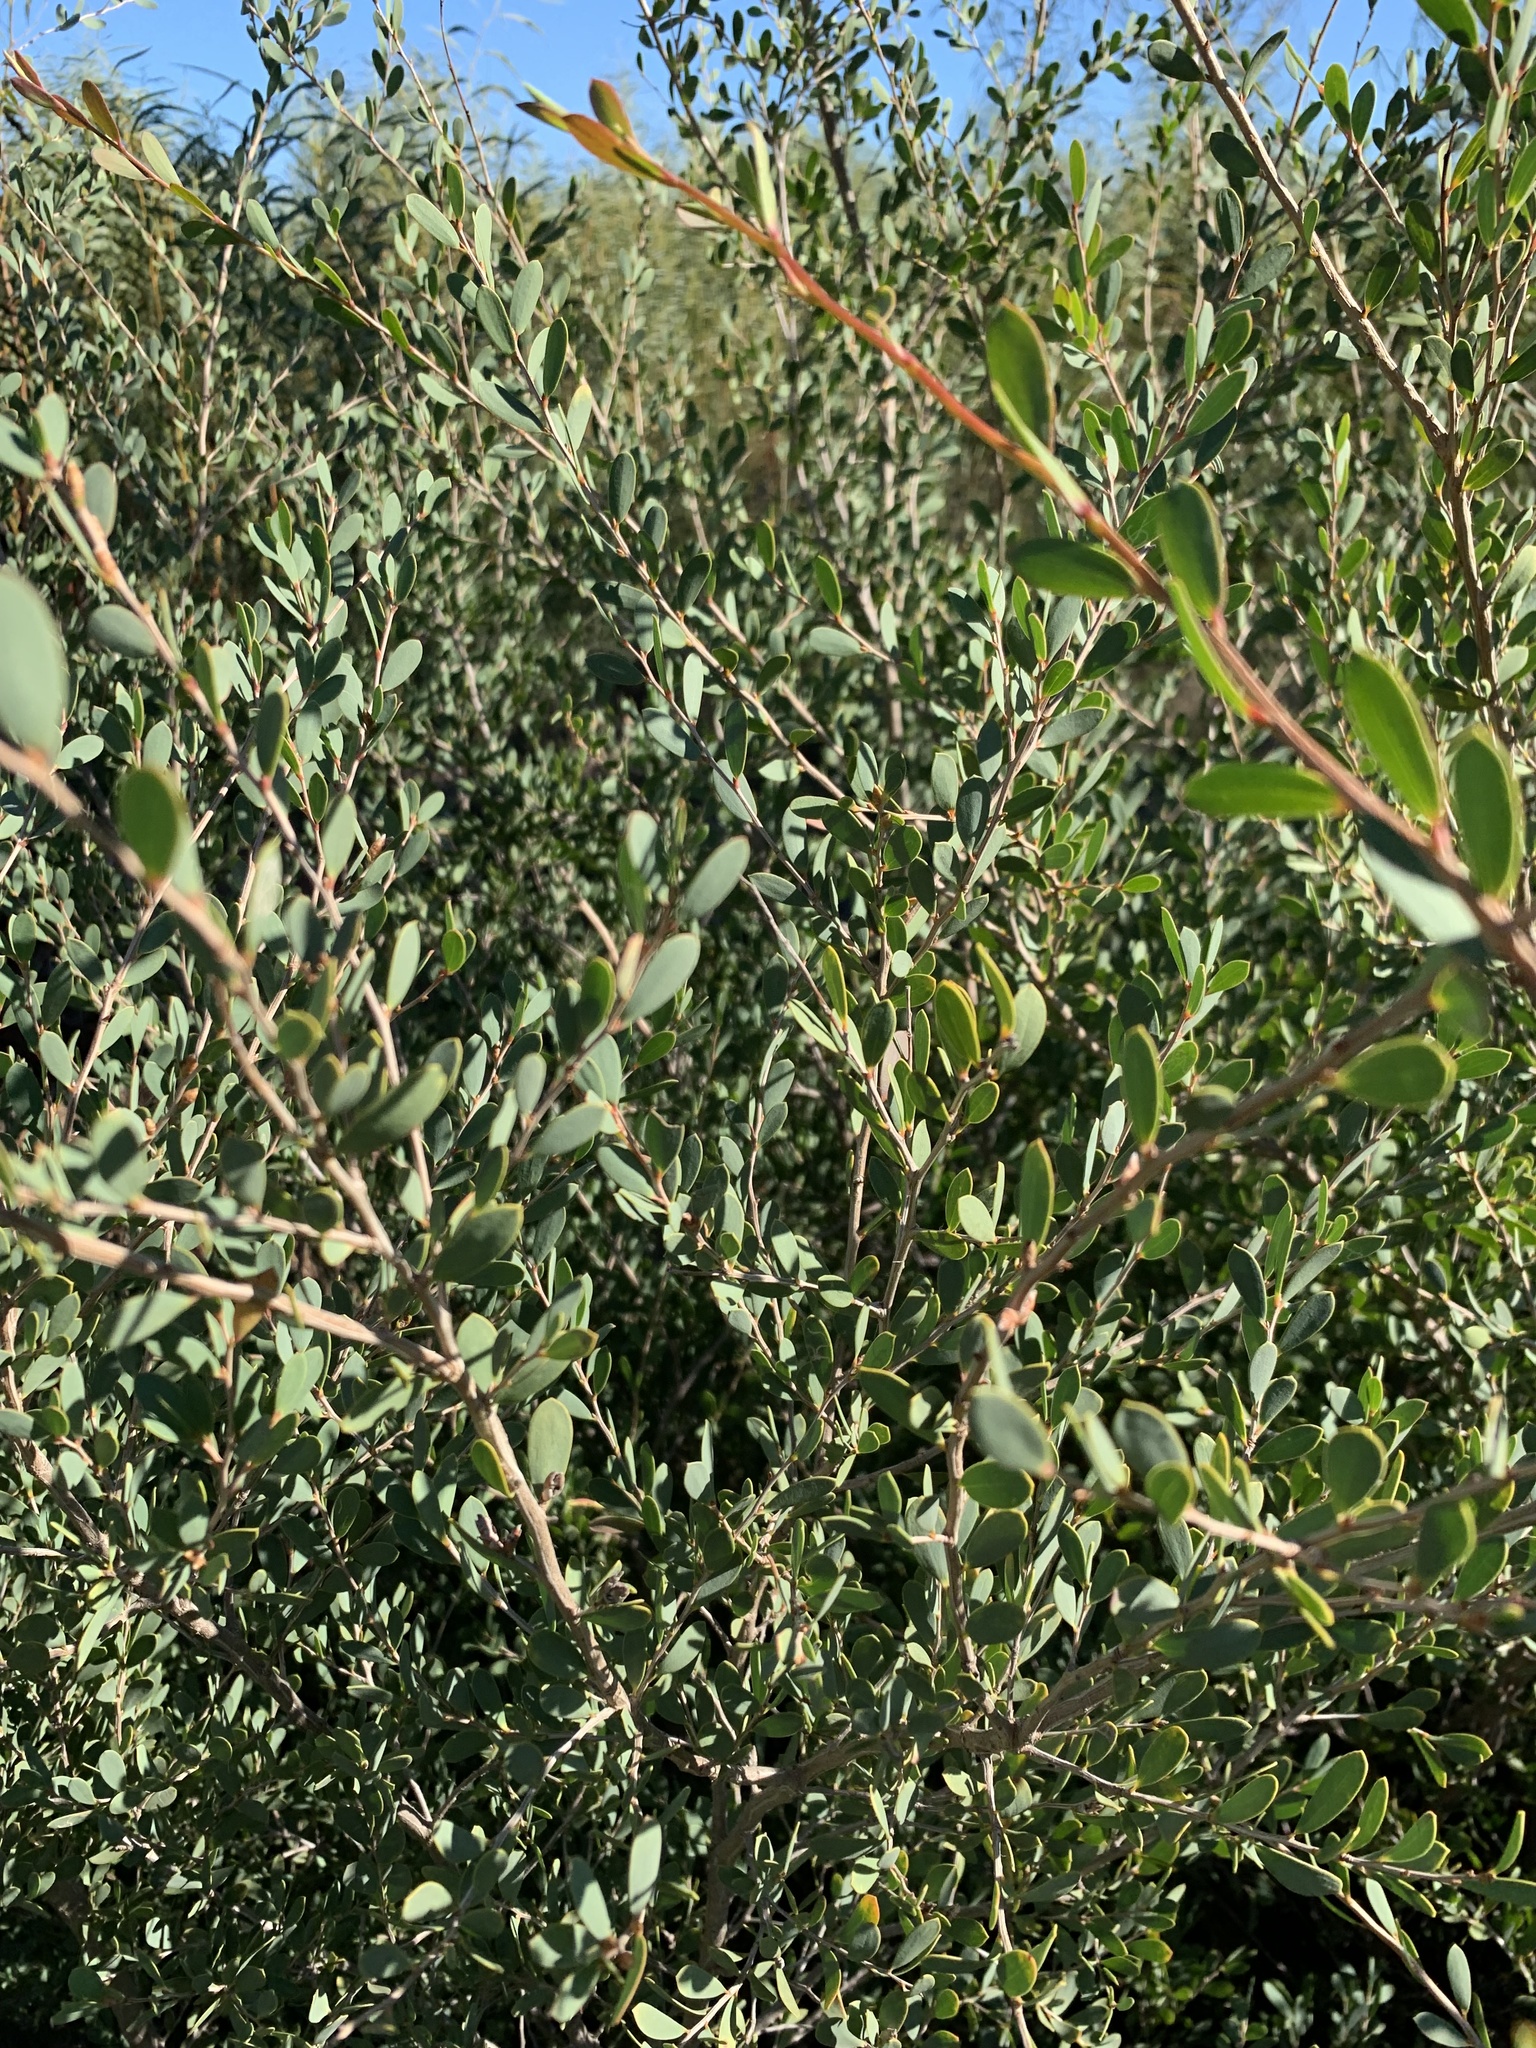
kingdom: Plantae
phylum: Tracheophyta
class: Magnoliopsida
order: Myrtales
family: Myrtaceae
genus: Leptospermum
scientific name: Leptospermum laevigatum
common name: Australian teatree
